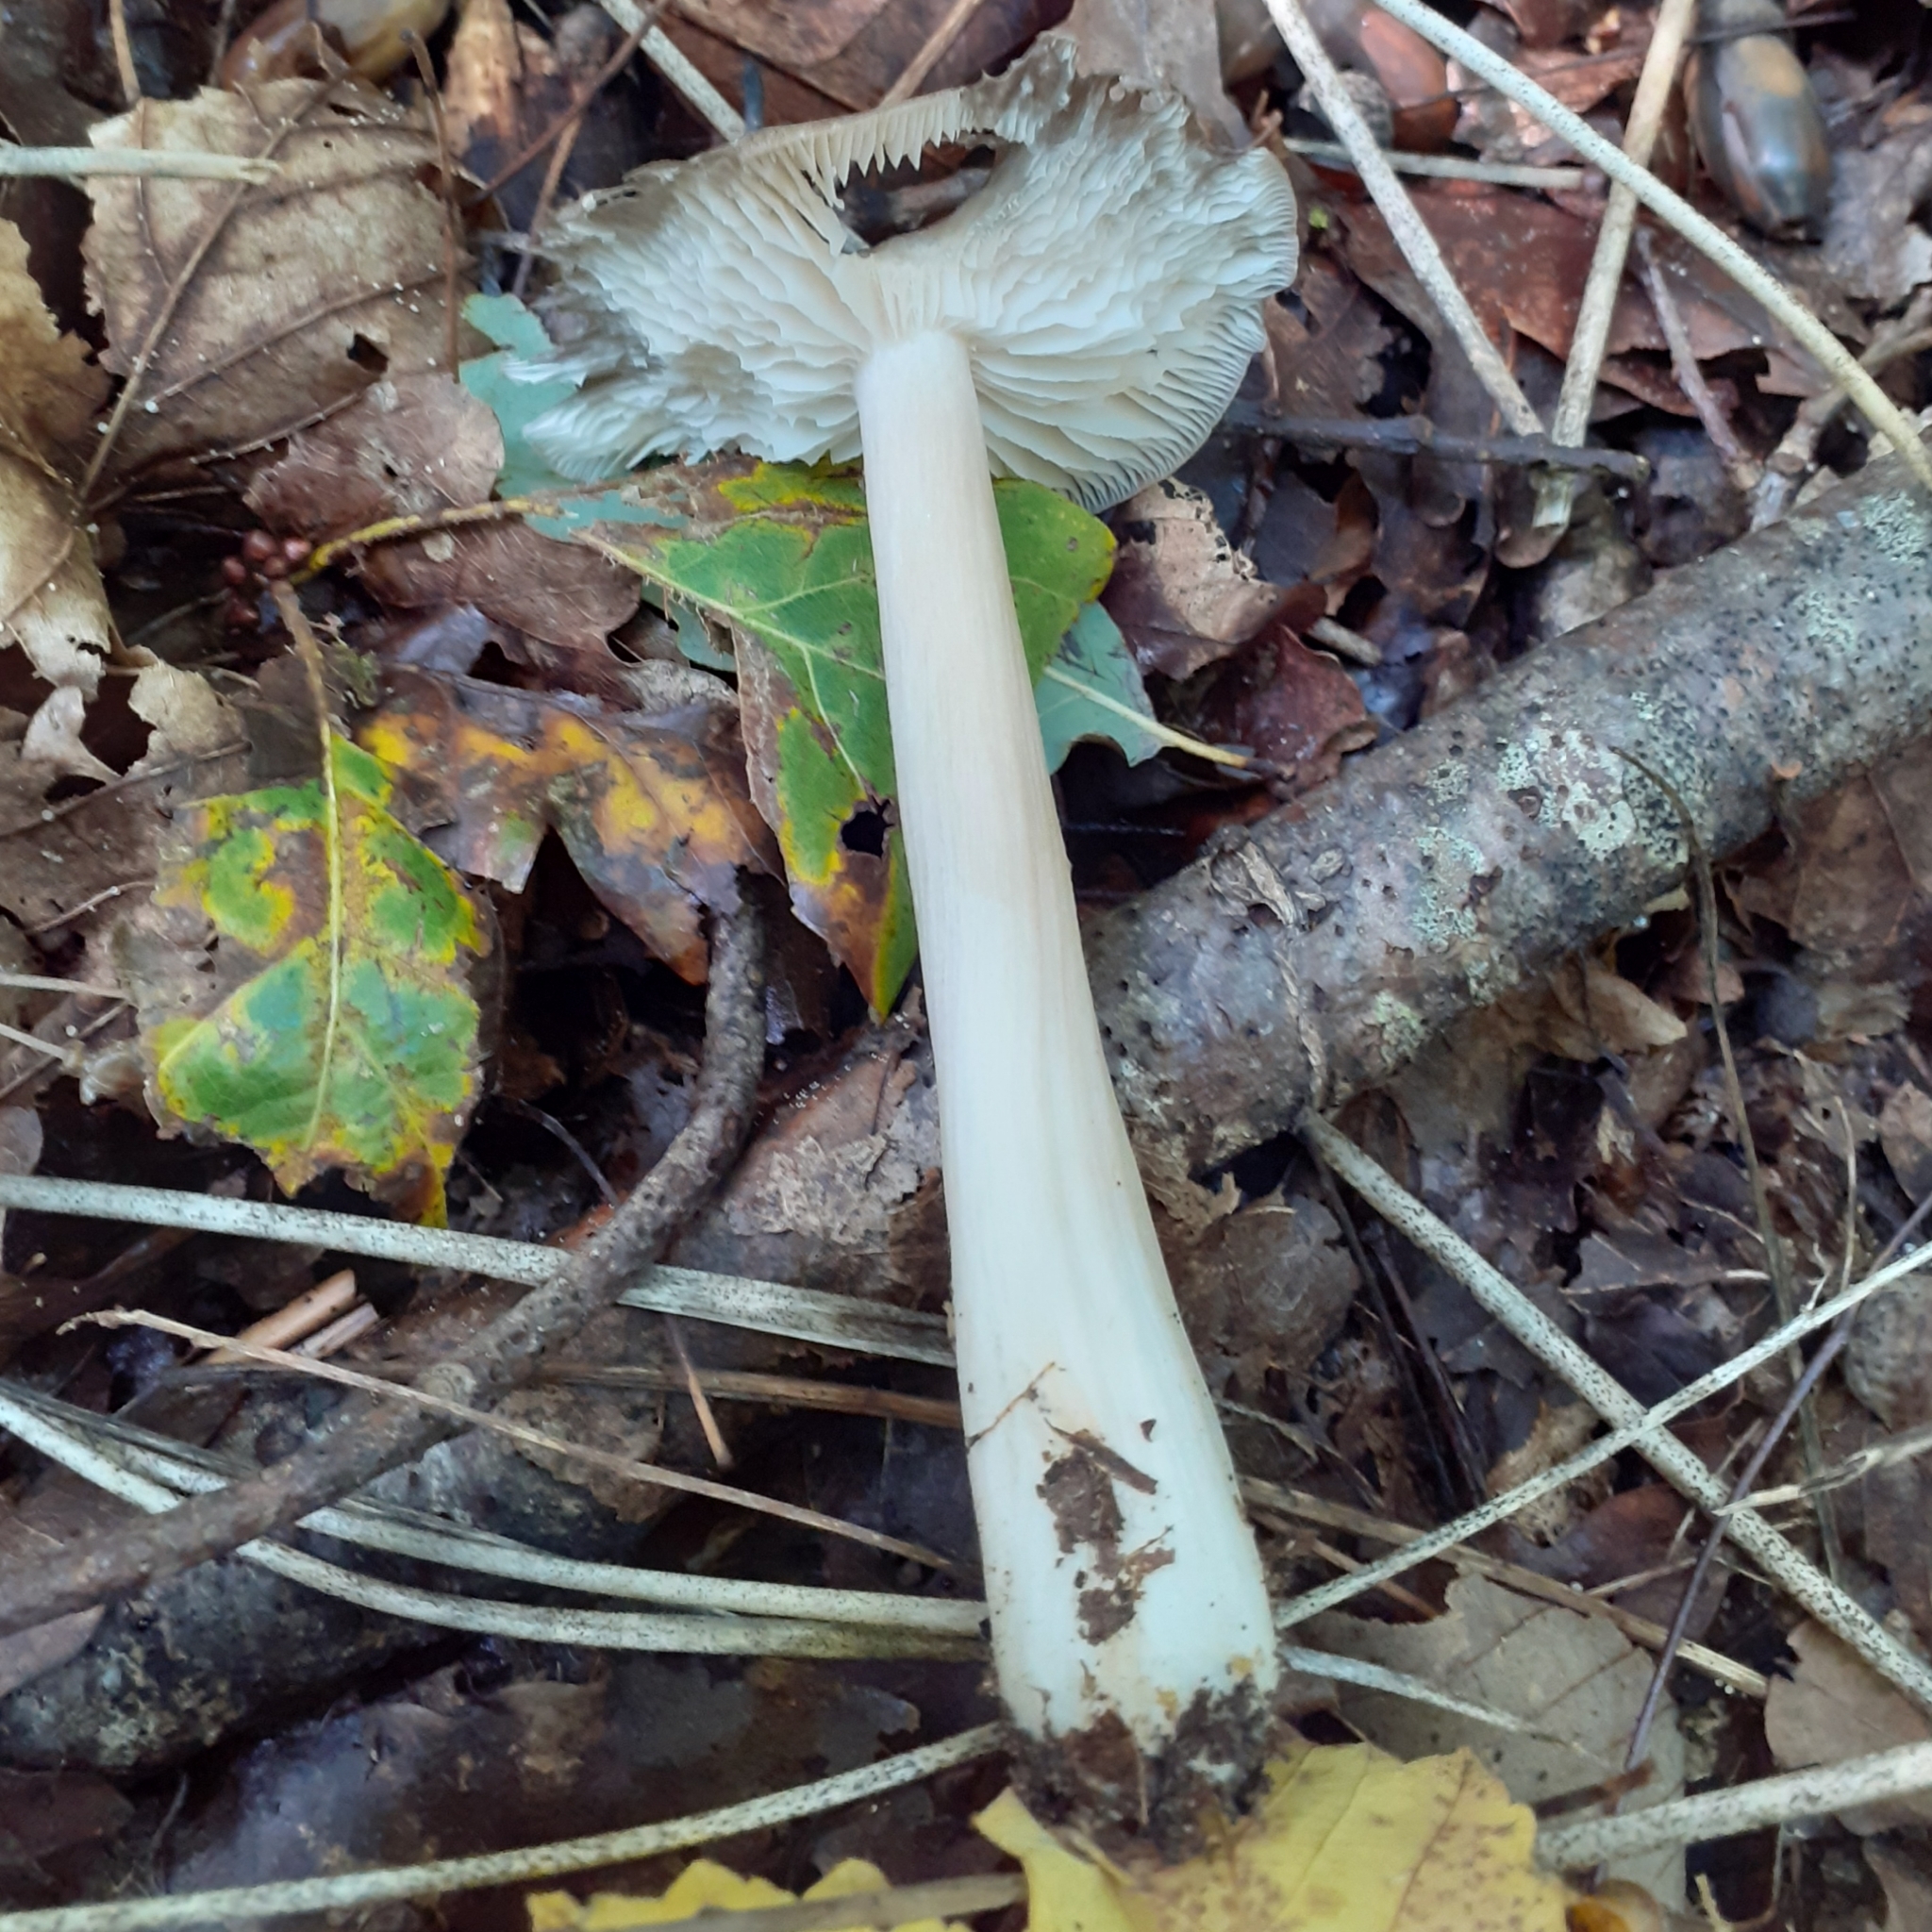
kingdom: Fungi
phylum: Basidiomycota
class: Agaricomycetes
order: Agaricales
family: Tricholomataceae
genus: Megacollybia
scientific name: Megacollybia platyphylla
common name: Whitelaced shank
